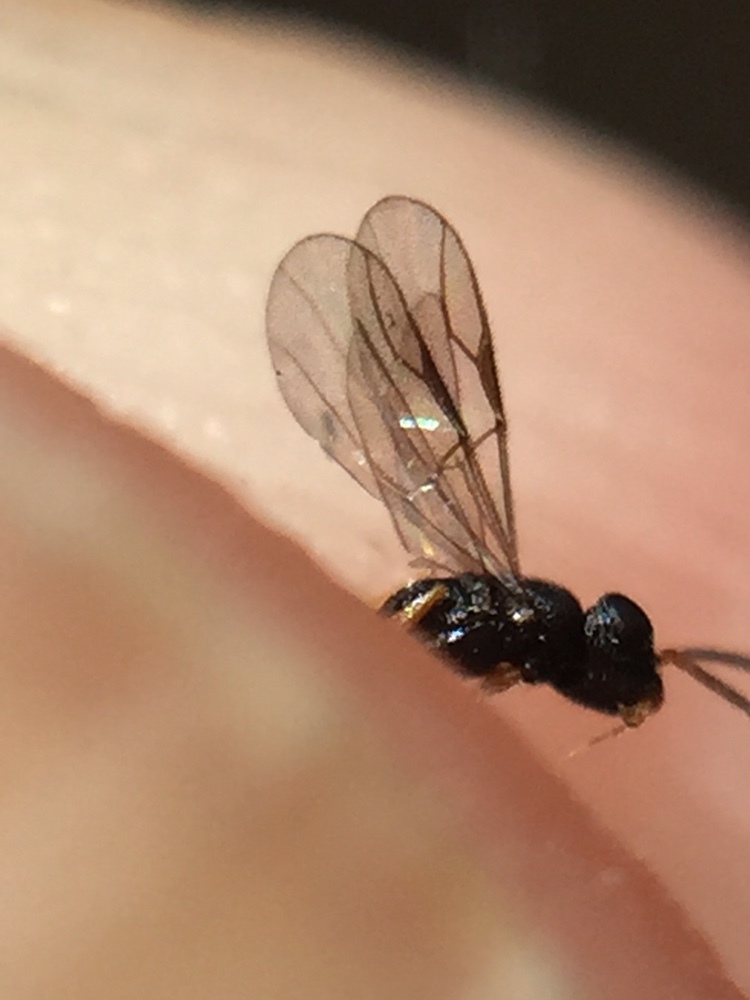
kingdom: Animalia
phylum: Arthropoda
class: Insecta
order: Hymenoptera
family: Dryinidae
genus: Dryinus
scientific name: Dryinus koebelei
